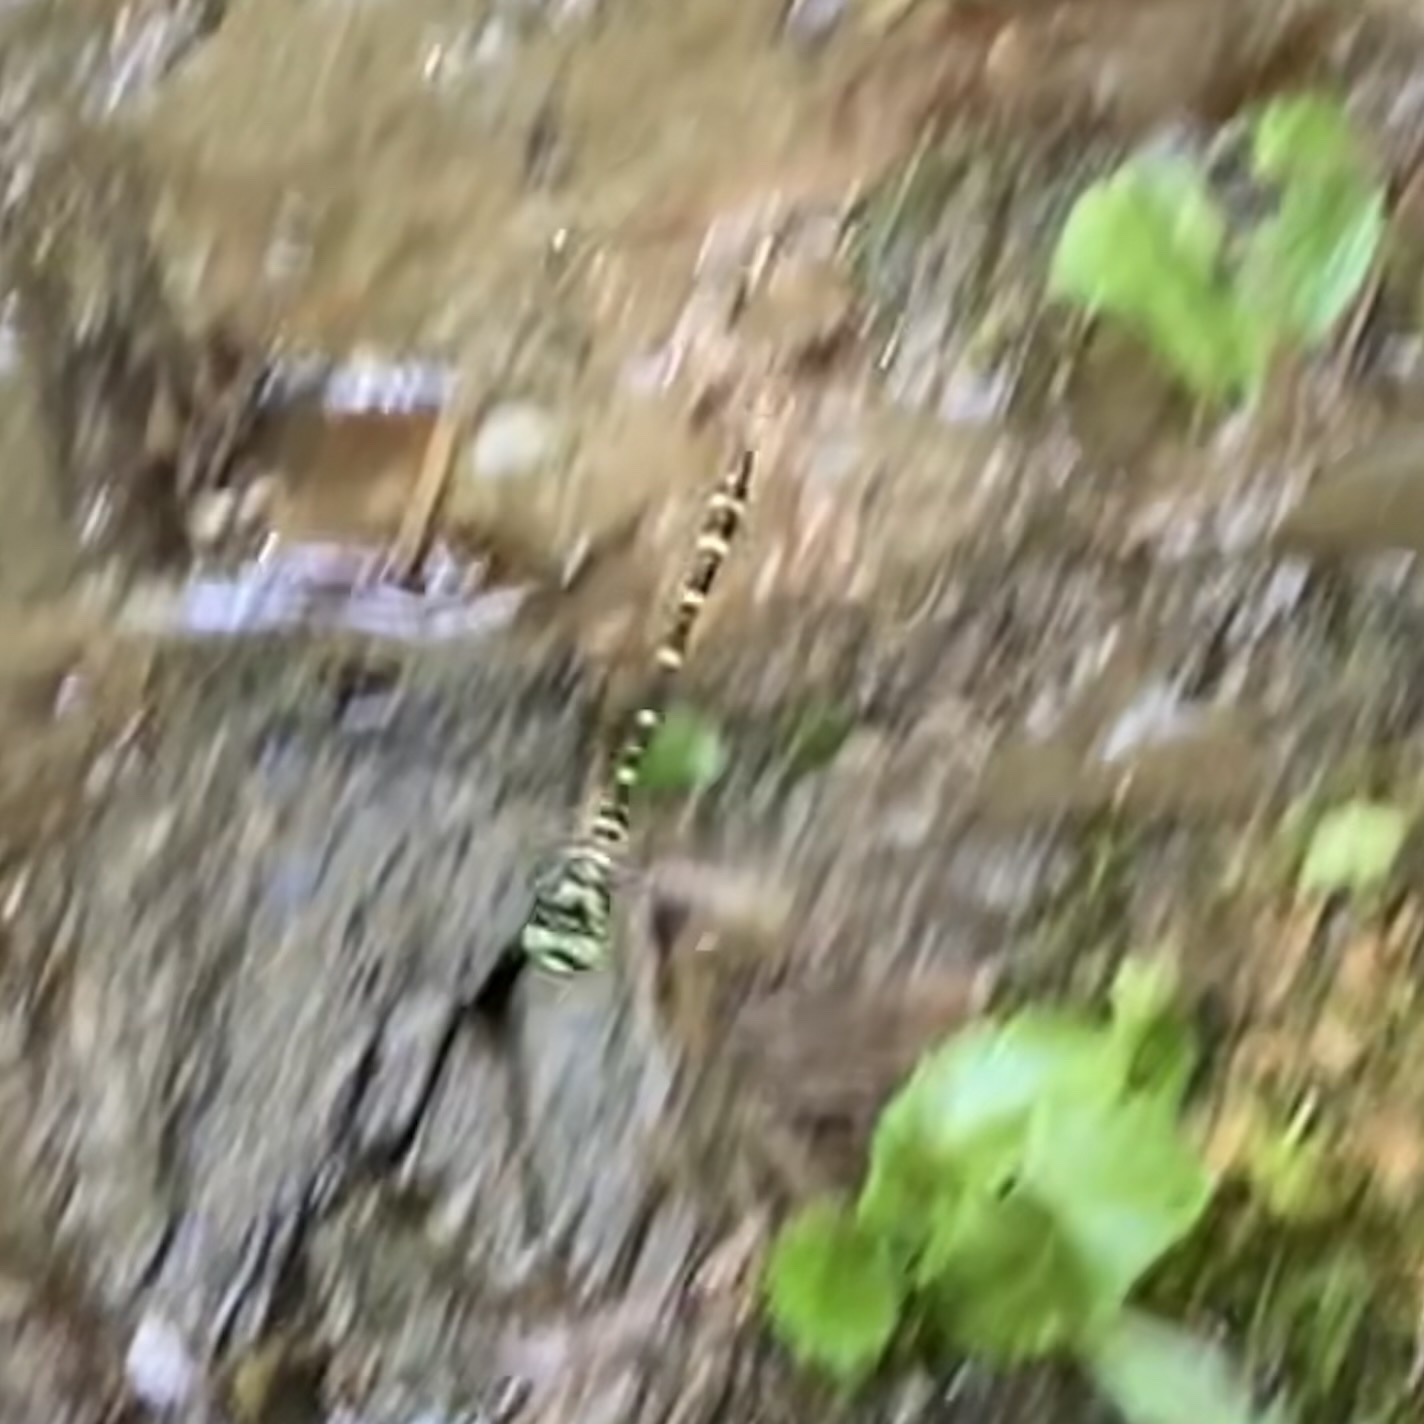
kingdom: Animalia
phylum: Arthropoda
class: Insecta
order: Odonata
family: Cordulegastridae
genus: Cordulegaster
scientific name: Cordulegaster erronea
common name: Tiger spiketail
